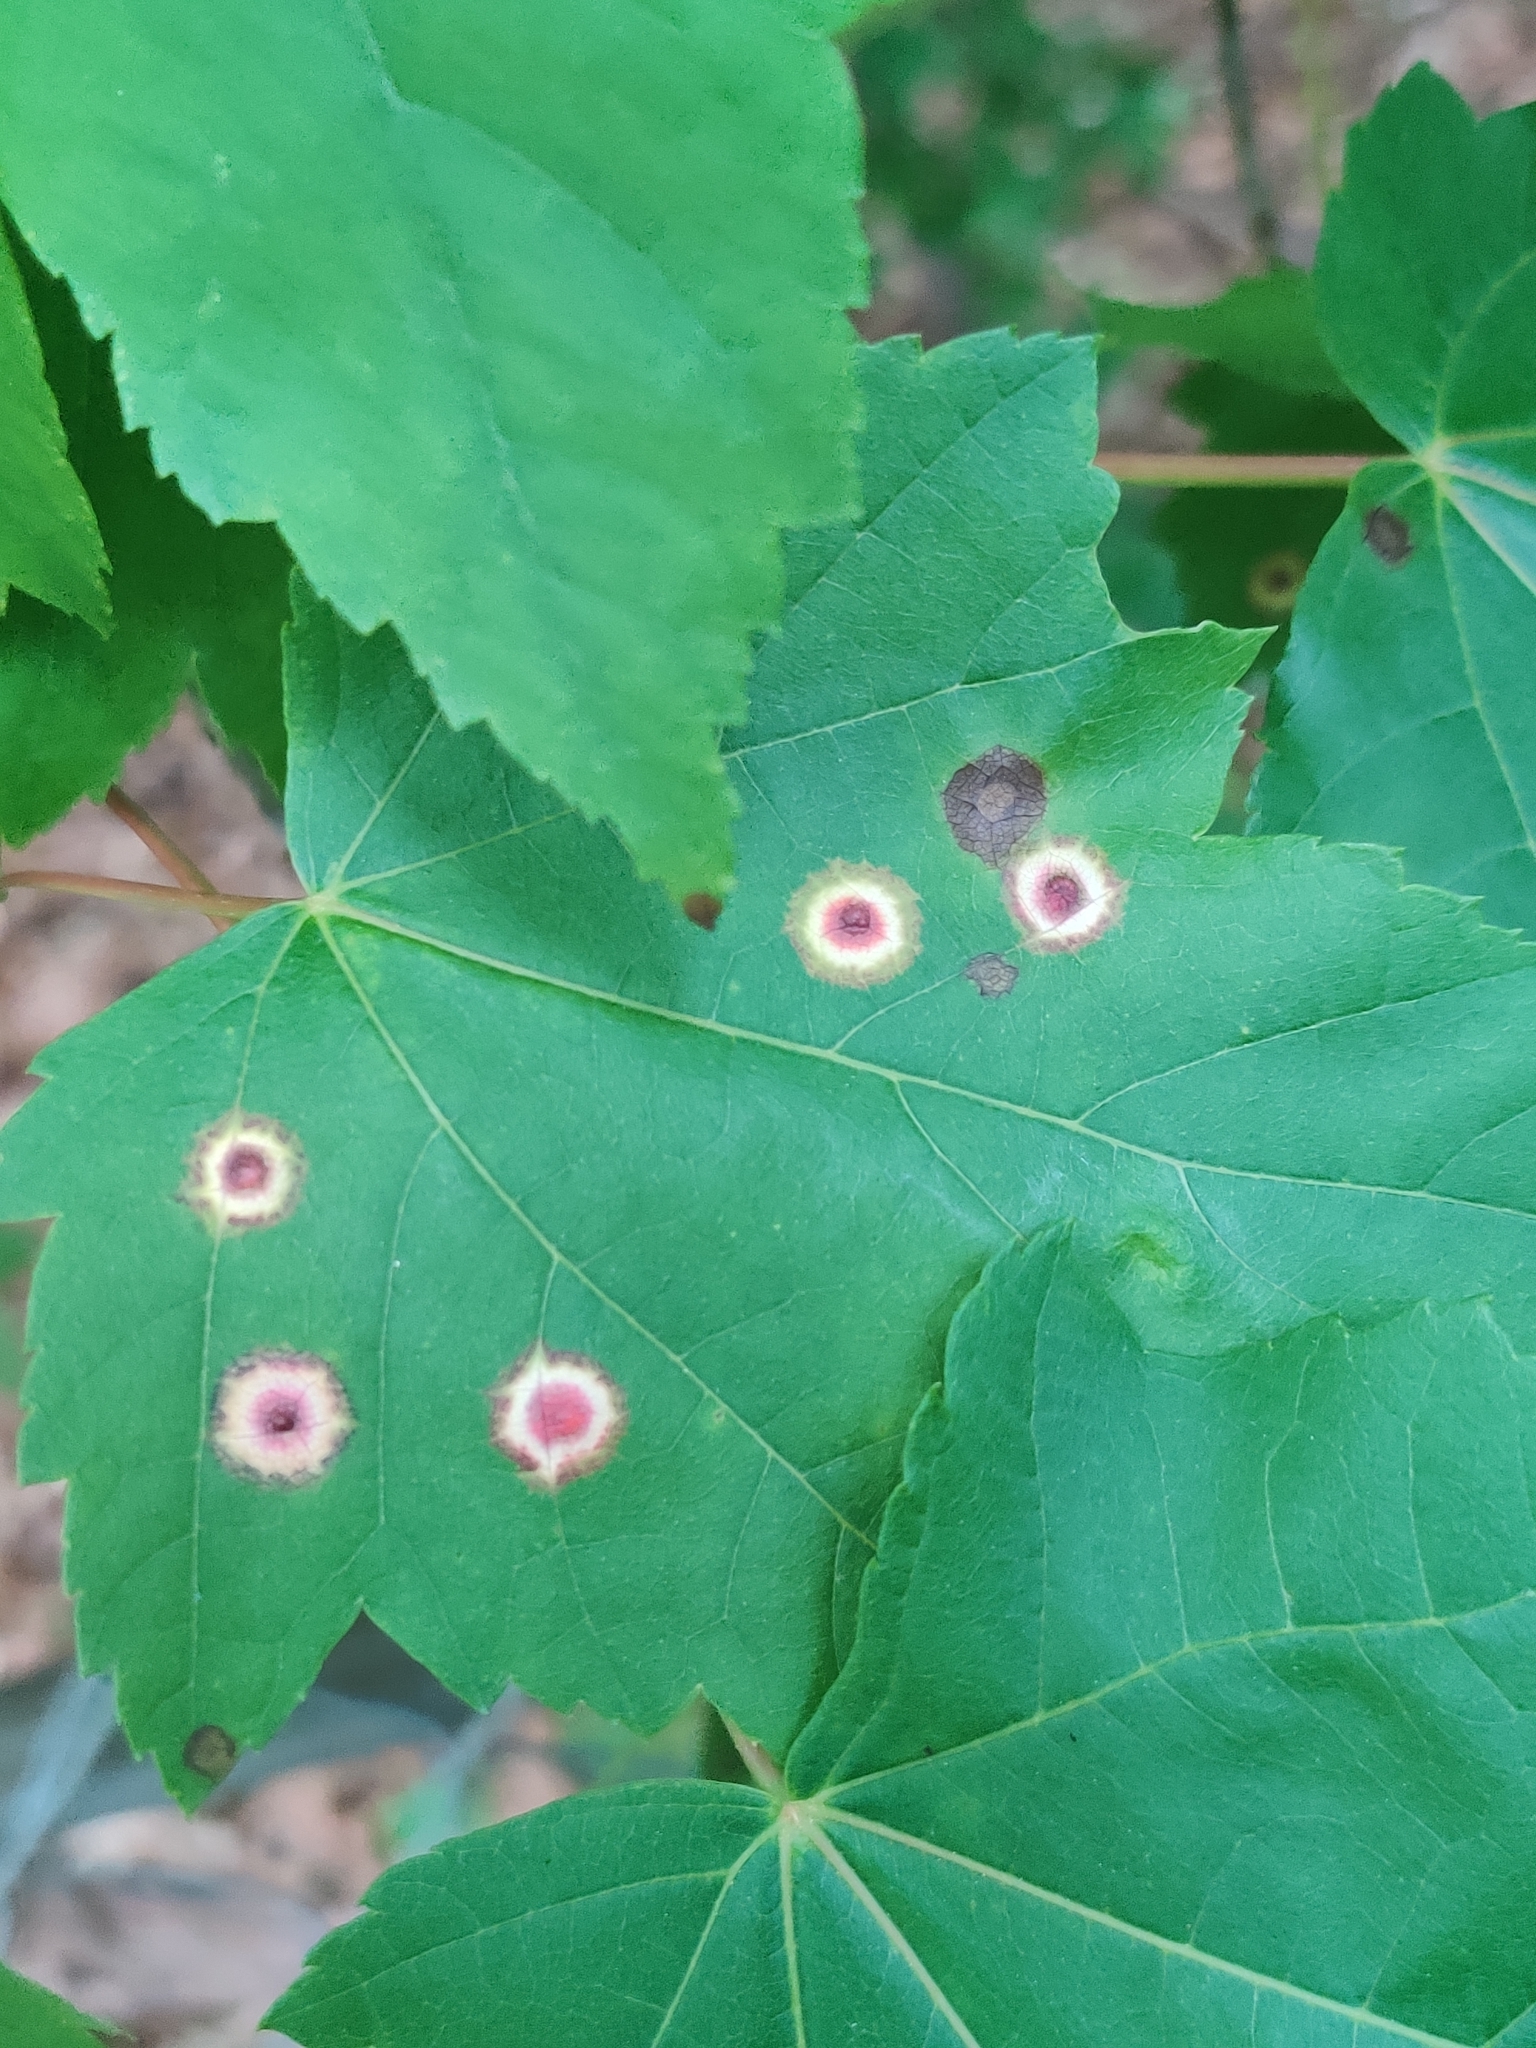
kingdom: Animalia
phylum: Arthropoda
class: Insecta
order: Diptera
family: Cecidomyiidae
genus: Acericecis
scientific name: Acericecis ocellaris
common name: Ocellate gall midge
